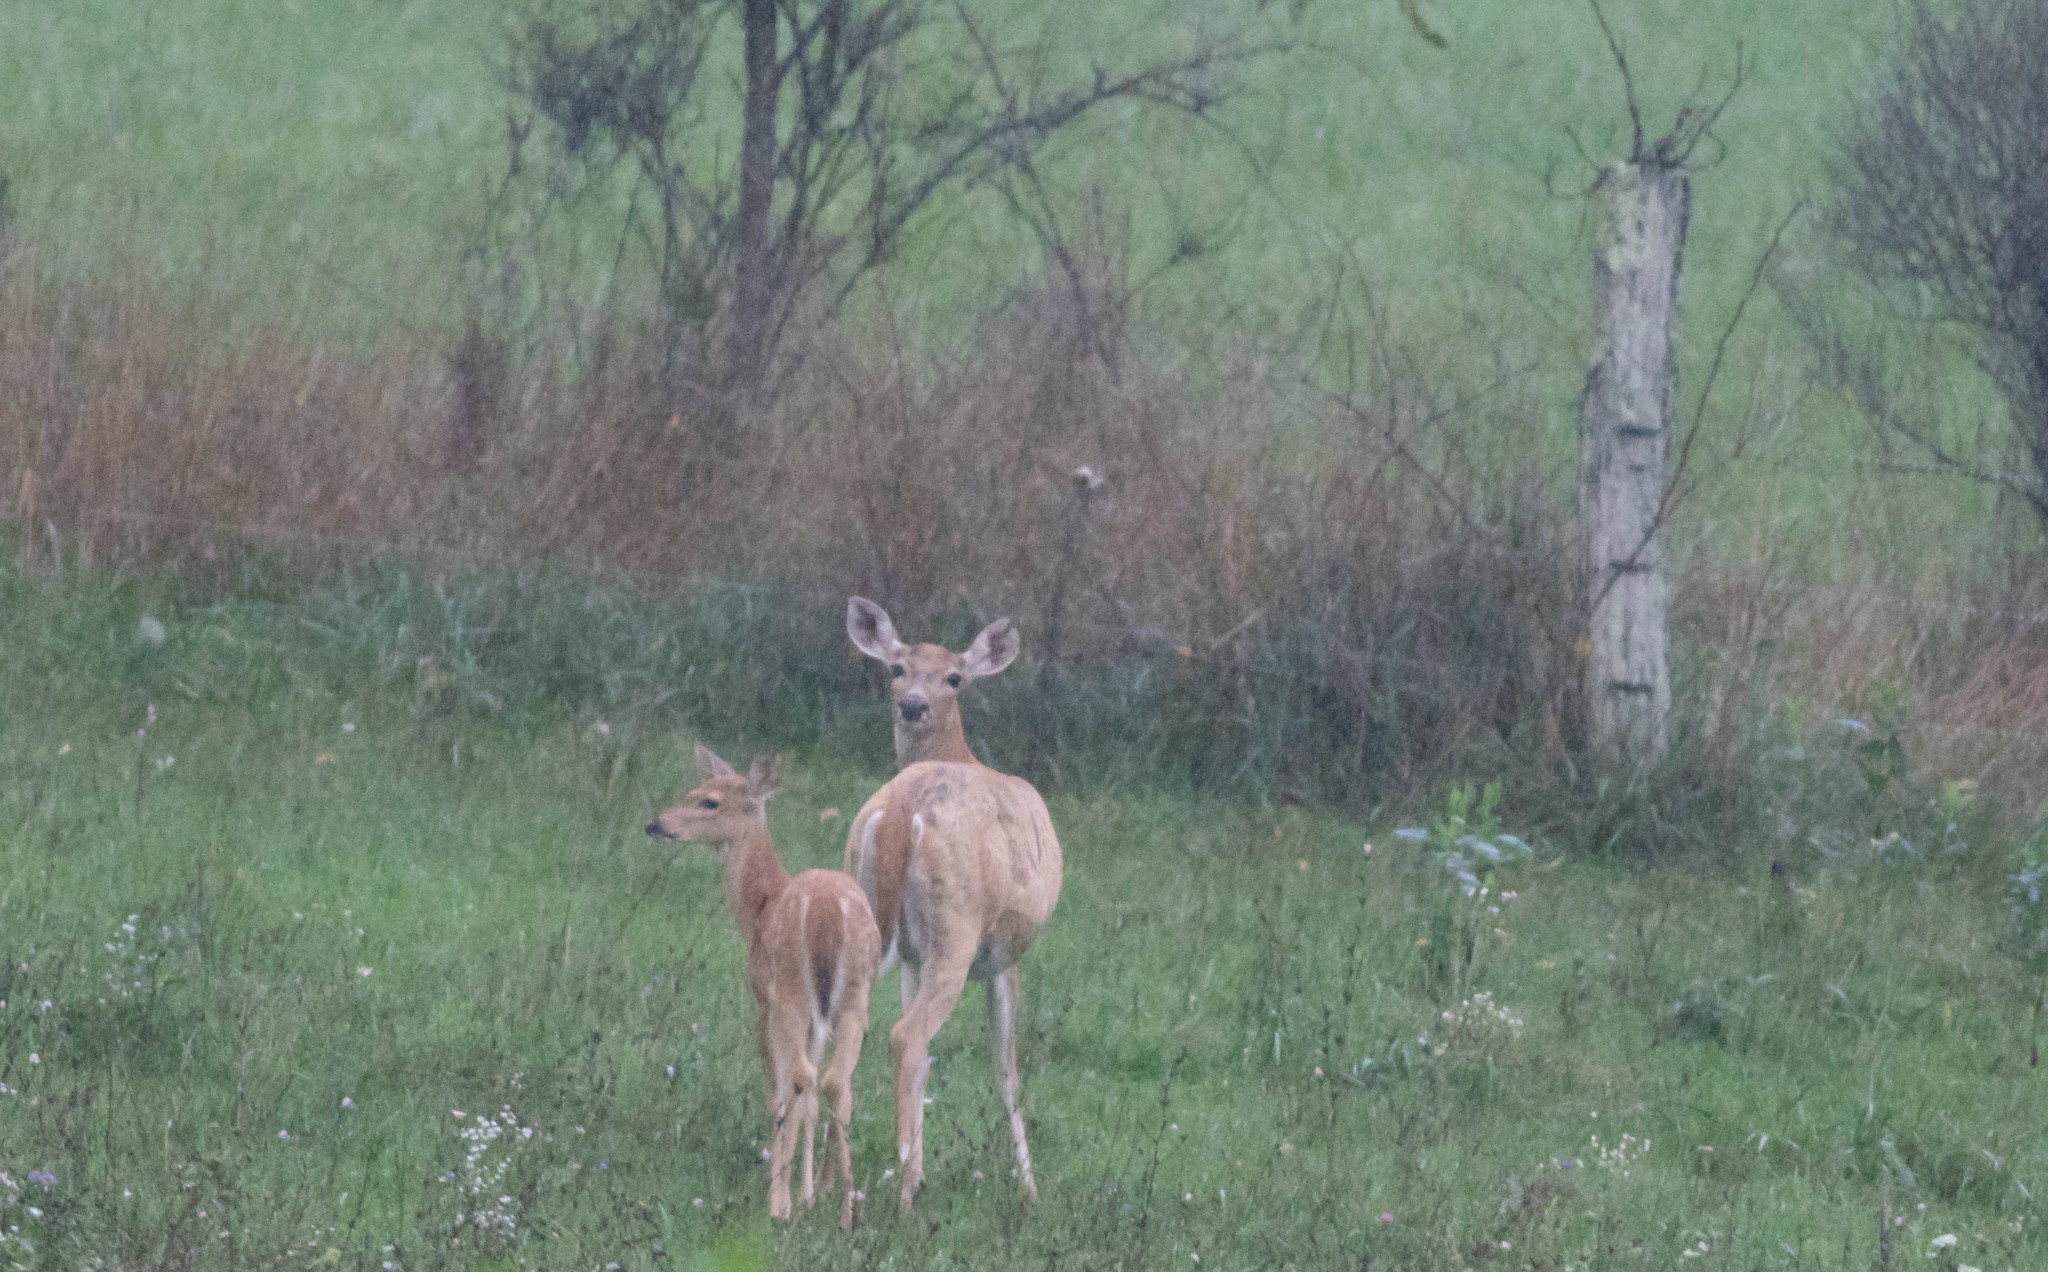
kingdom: Animalia
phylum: Chordata
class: Mammalia
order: Artiodactyla
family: Cervidae
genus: Odocoileus
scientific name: Odocoileus virginianus
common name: White-tailed deer
